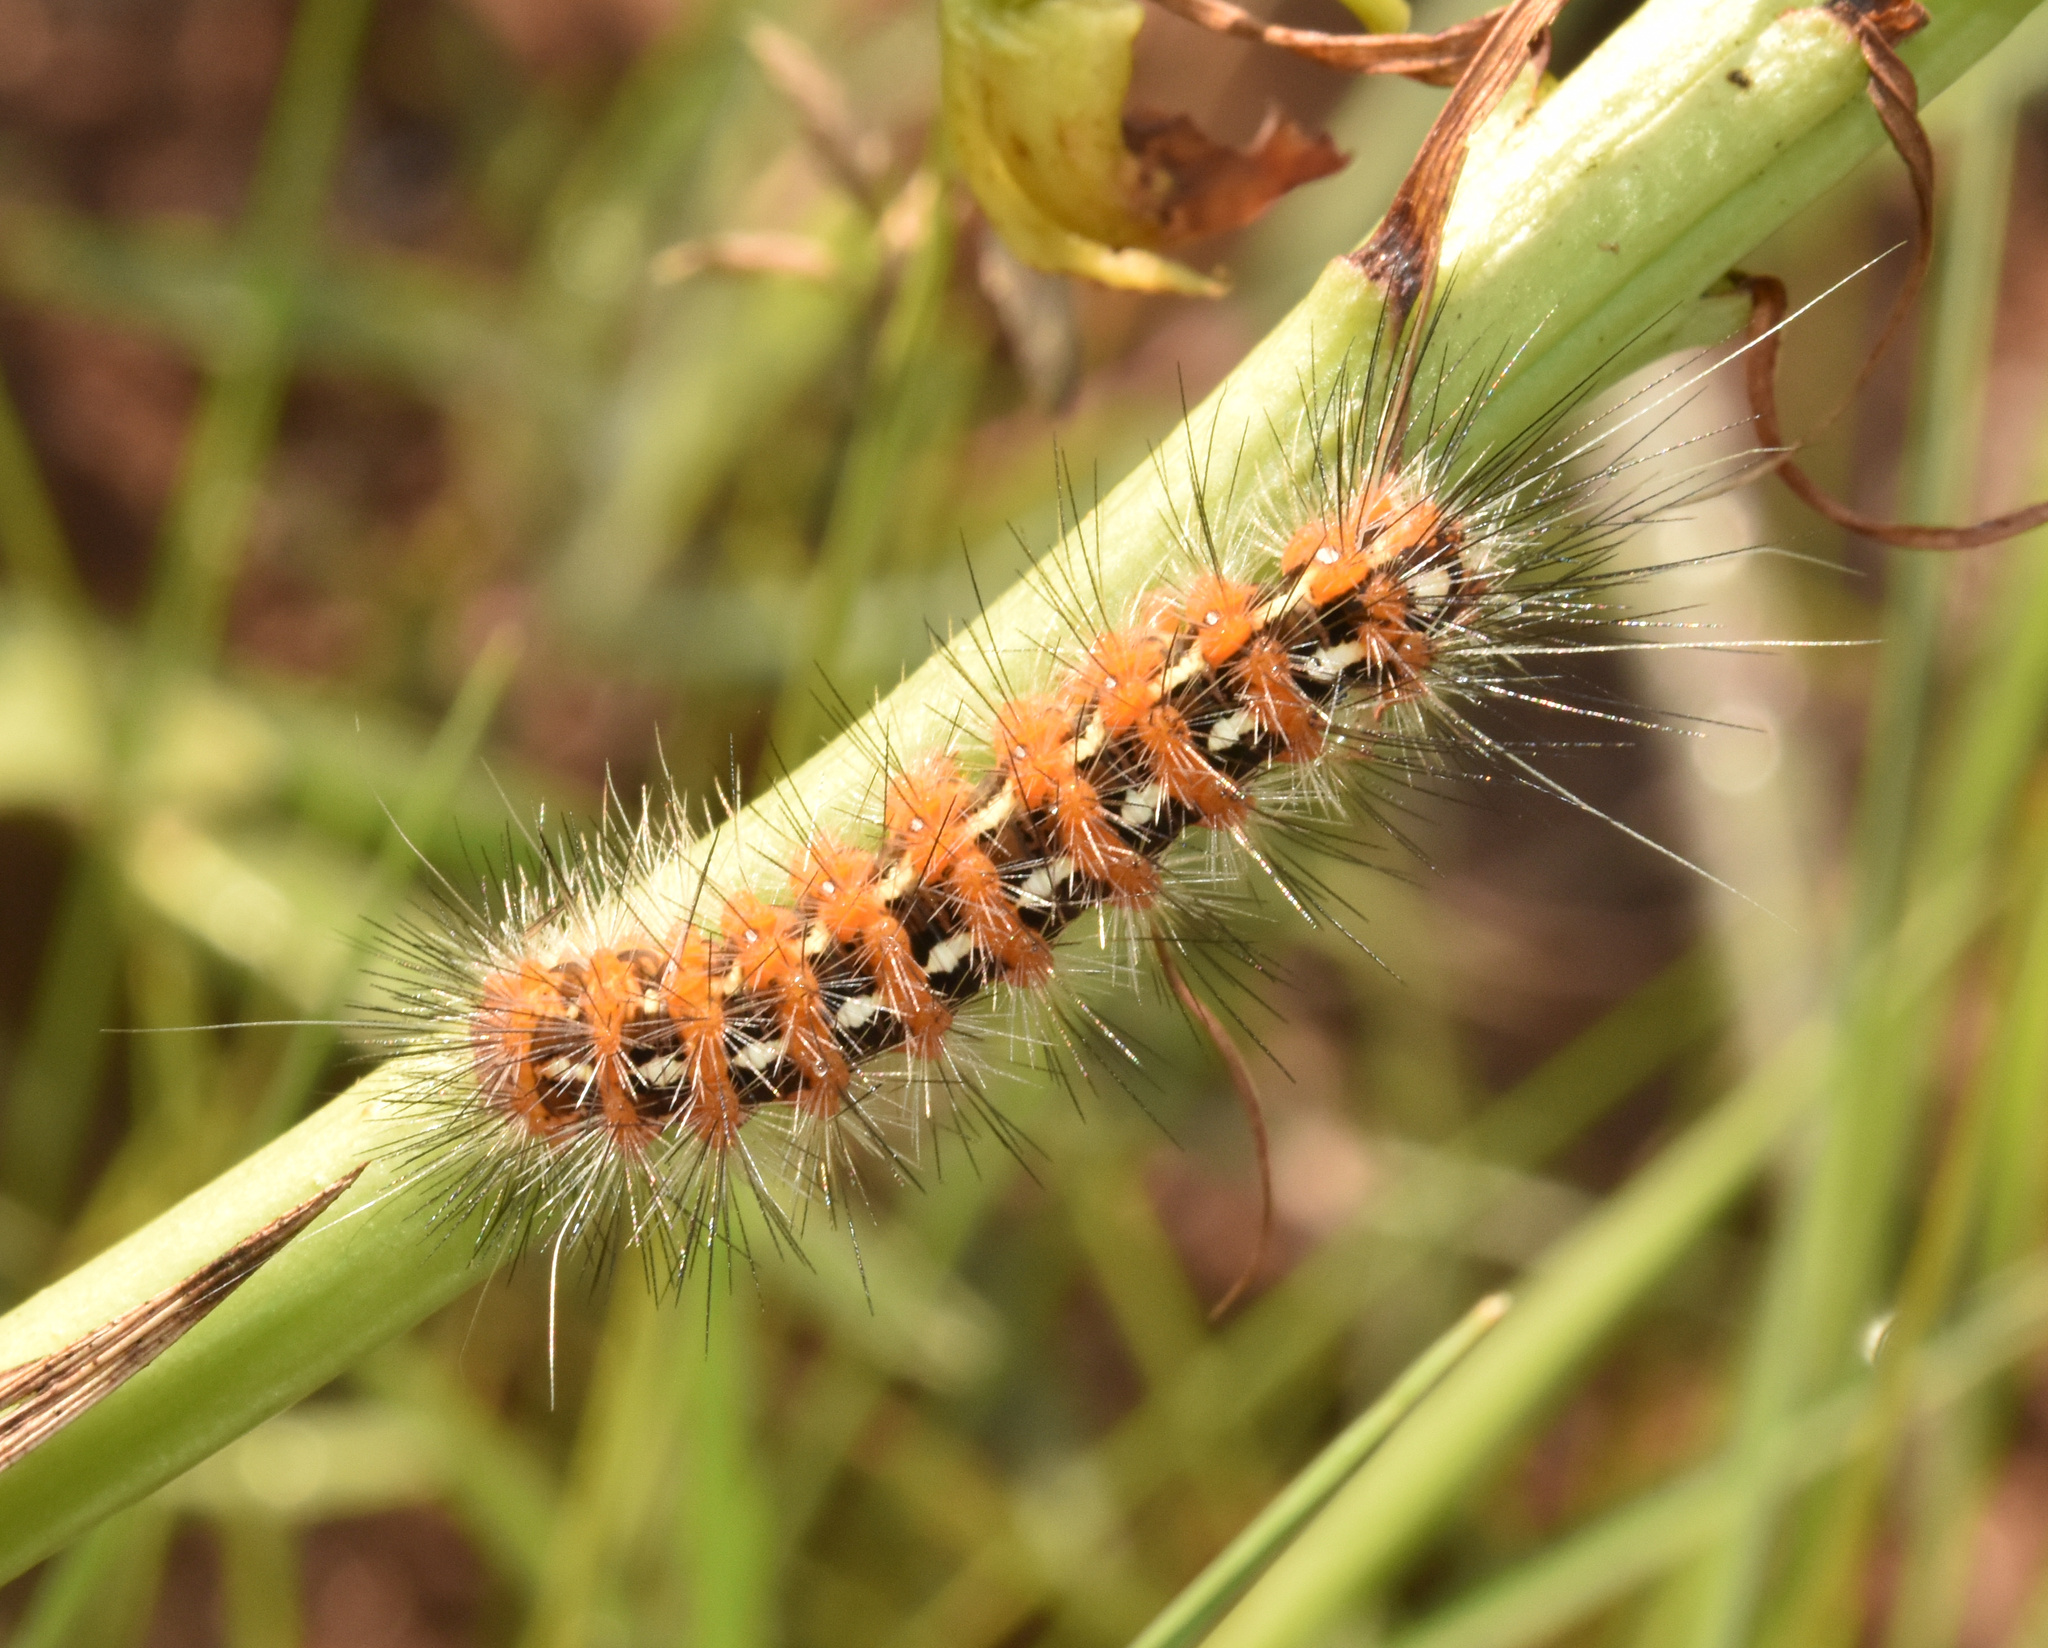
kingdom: Animalia
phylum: Arthropoda
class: Insecta
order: Lepidoptera
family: Erebidae
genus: Saenura
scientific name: Saenura flava
